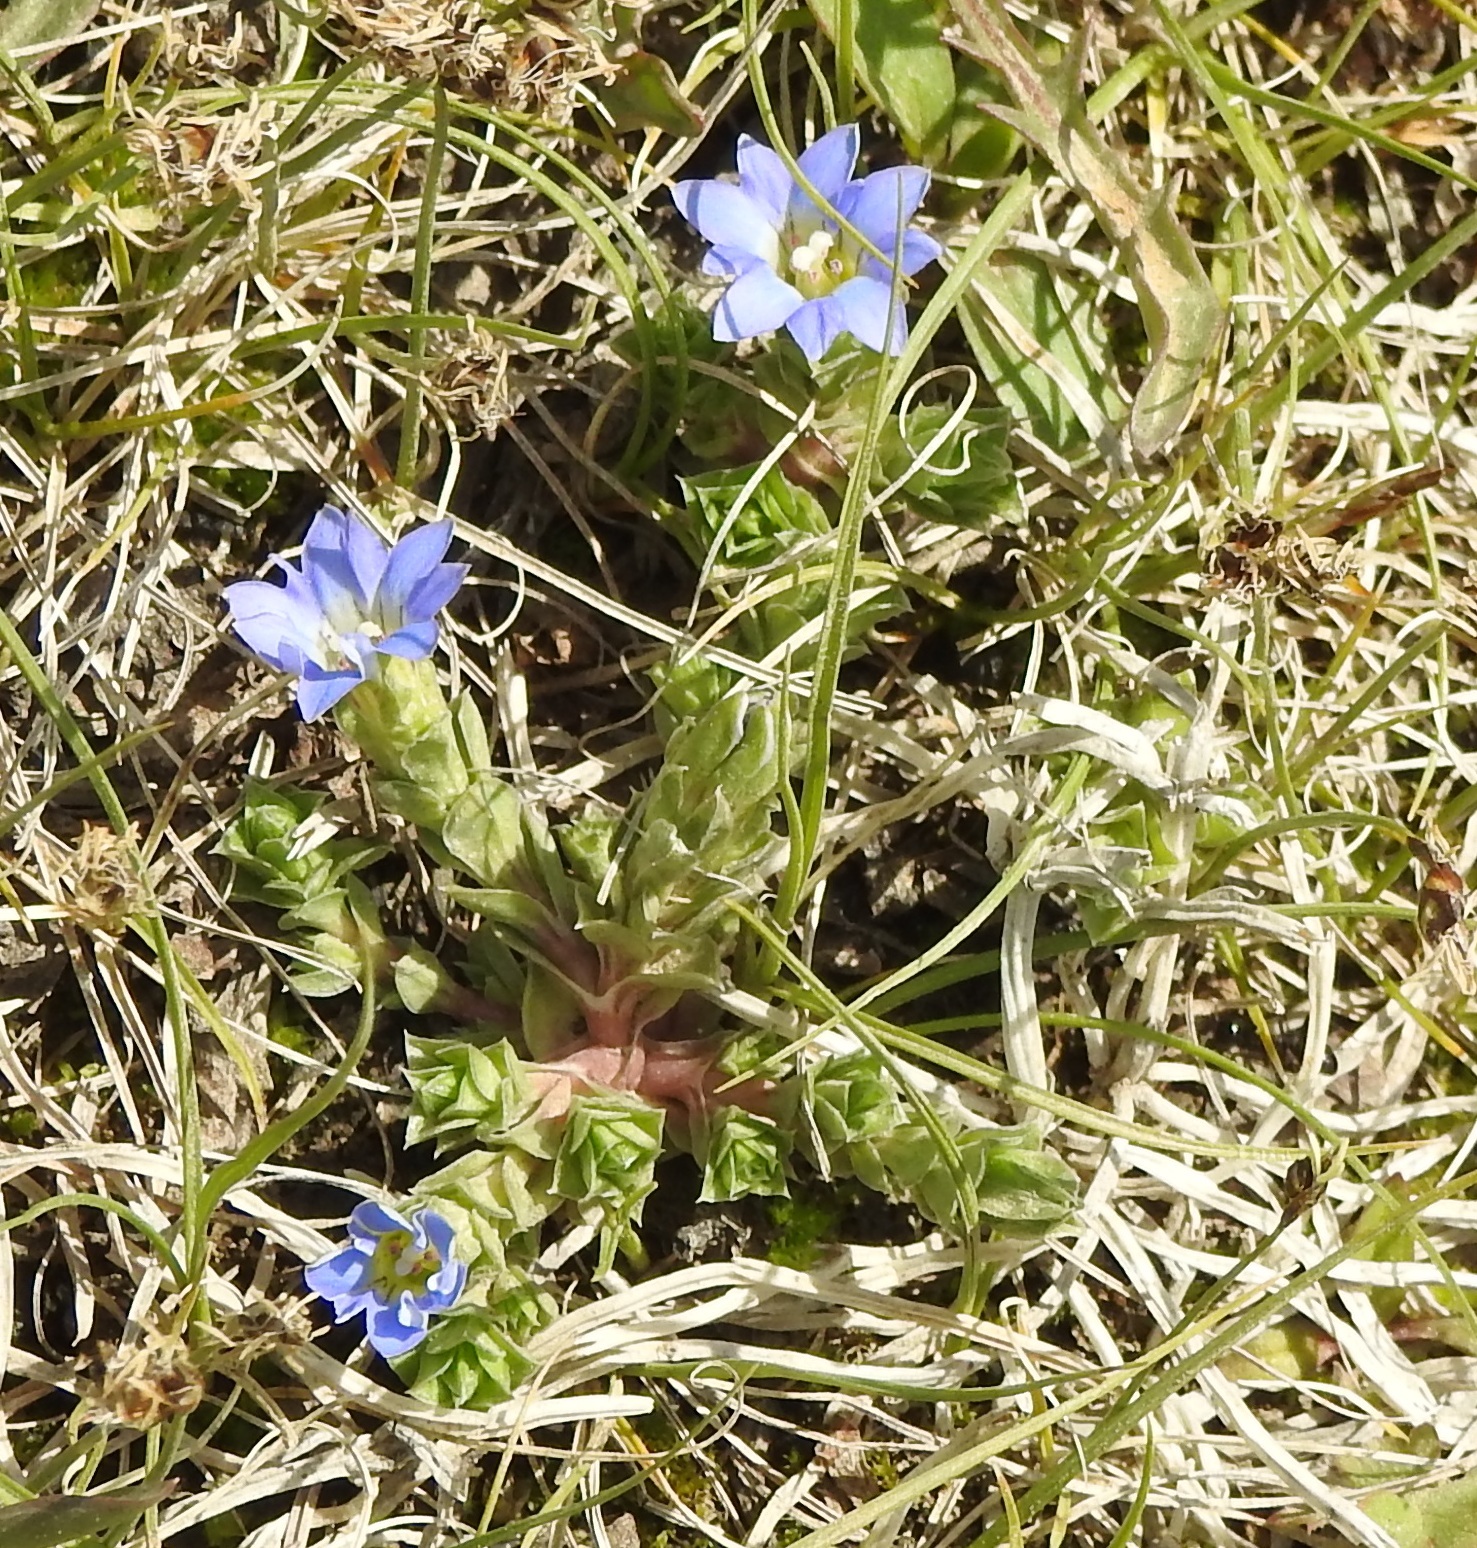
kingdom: Plantae
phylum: Tracheophyta
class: Magnoliopsida
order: Gentianales
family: Gentianaceae
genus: Gentiana
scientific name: Gentiana squarrosa
